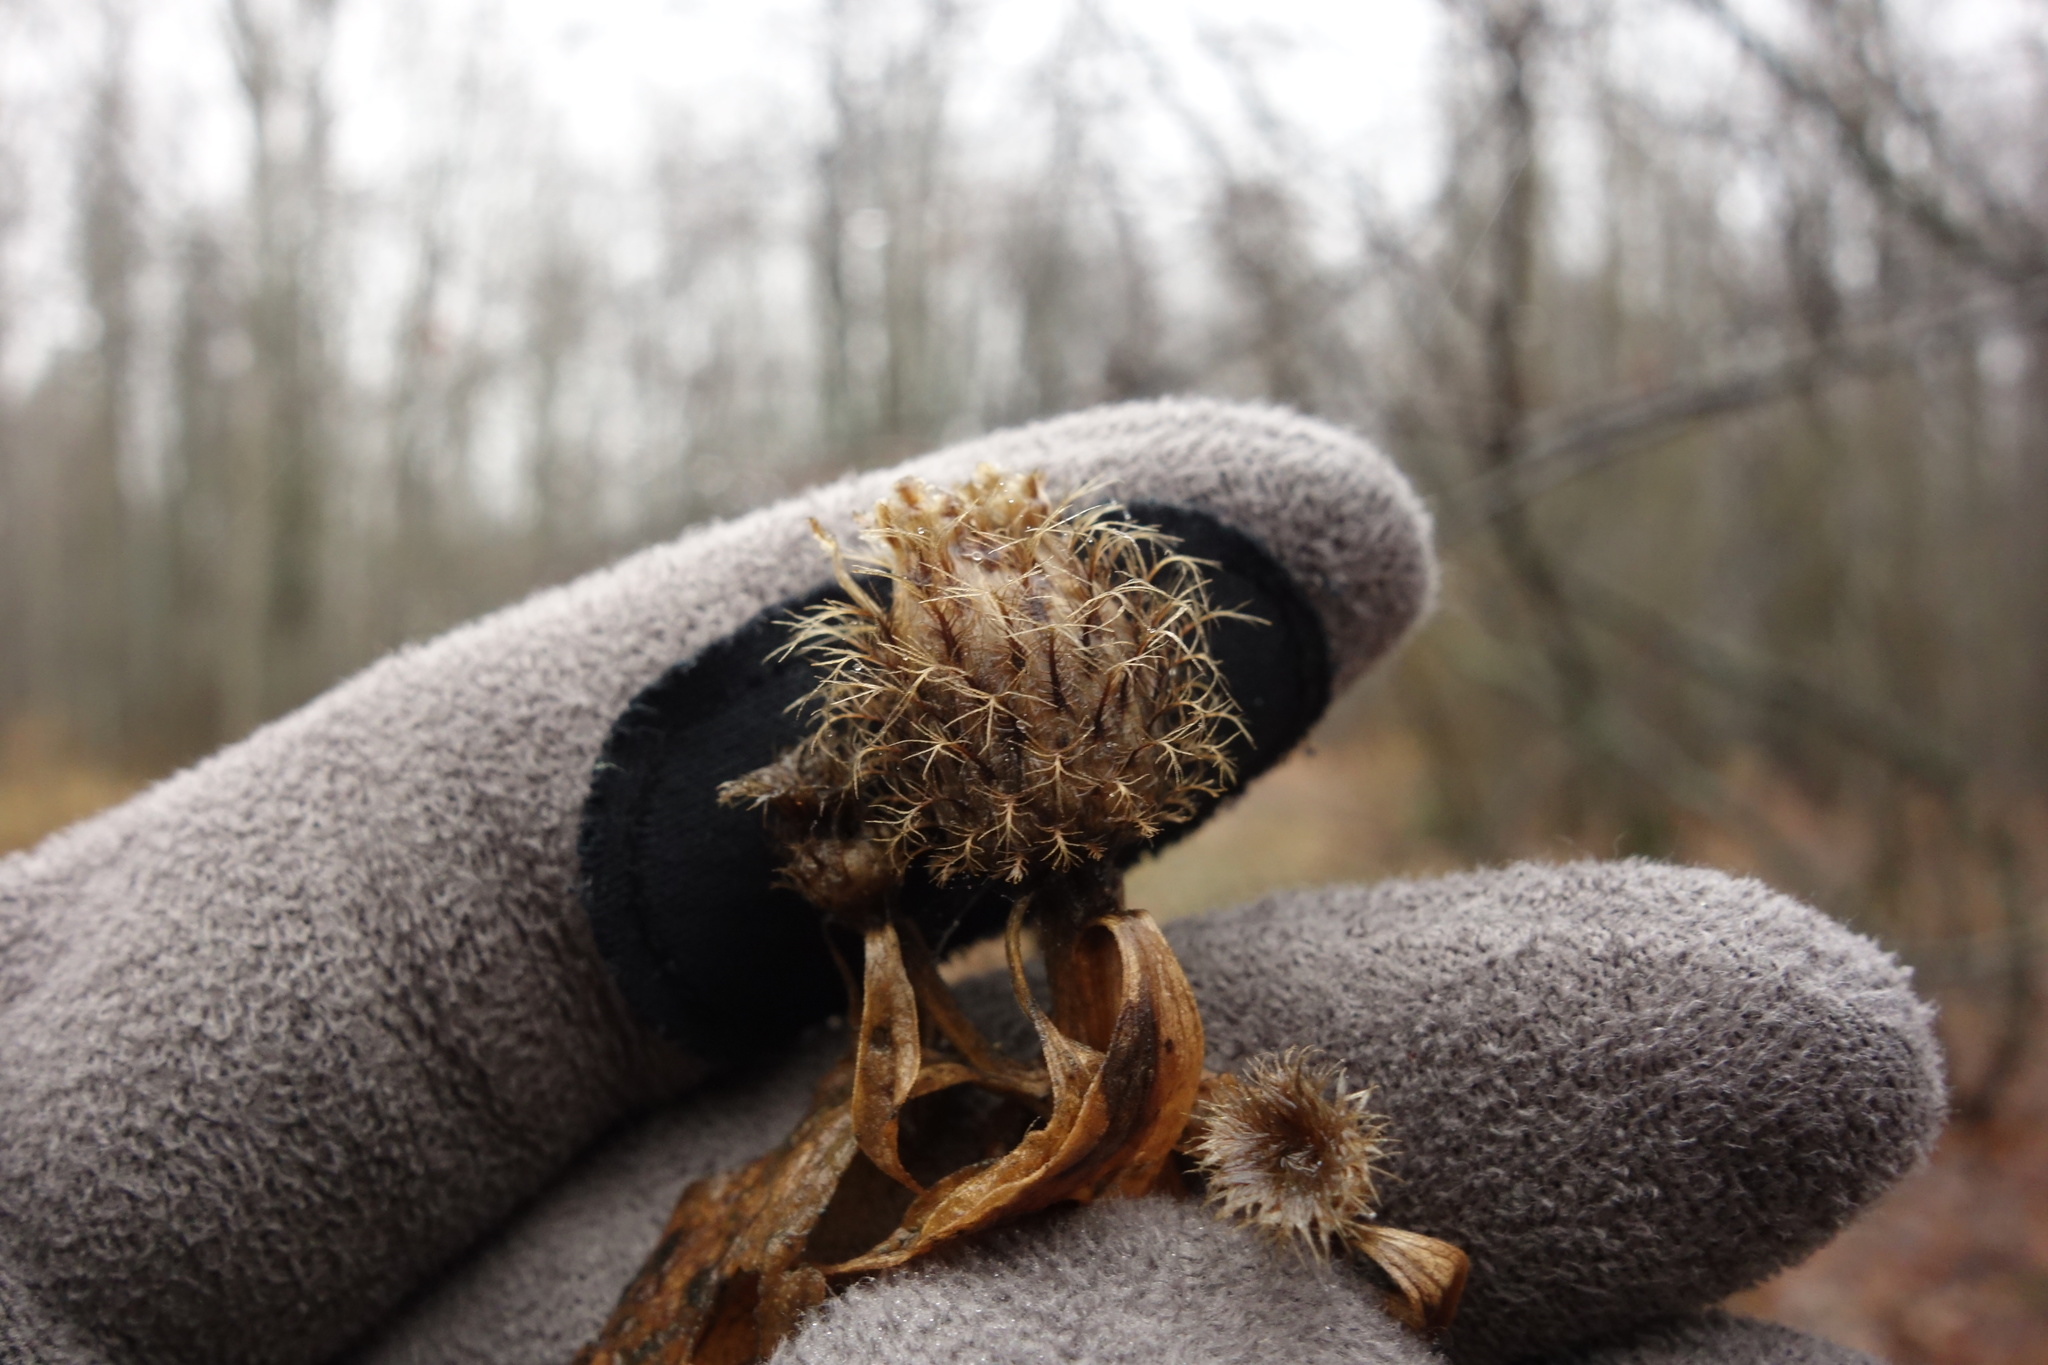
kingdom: Plantae
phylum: Tracheophyta
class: Magnoliopsida
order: Asterales
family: Asteraceae
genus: Centaurea
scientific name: Centaurea pseudophrygia
